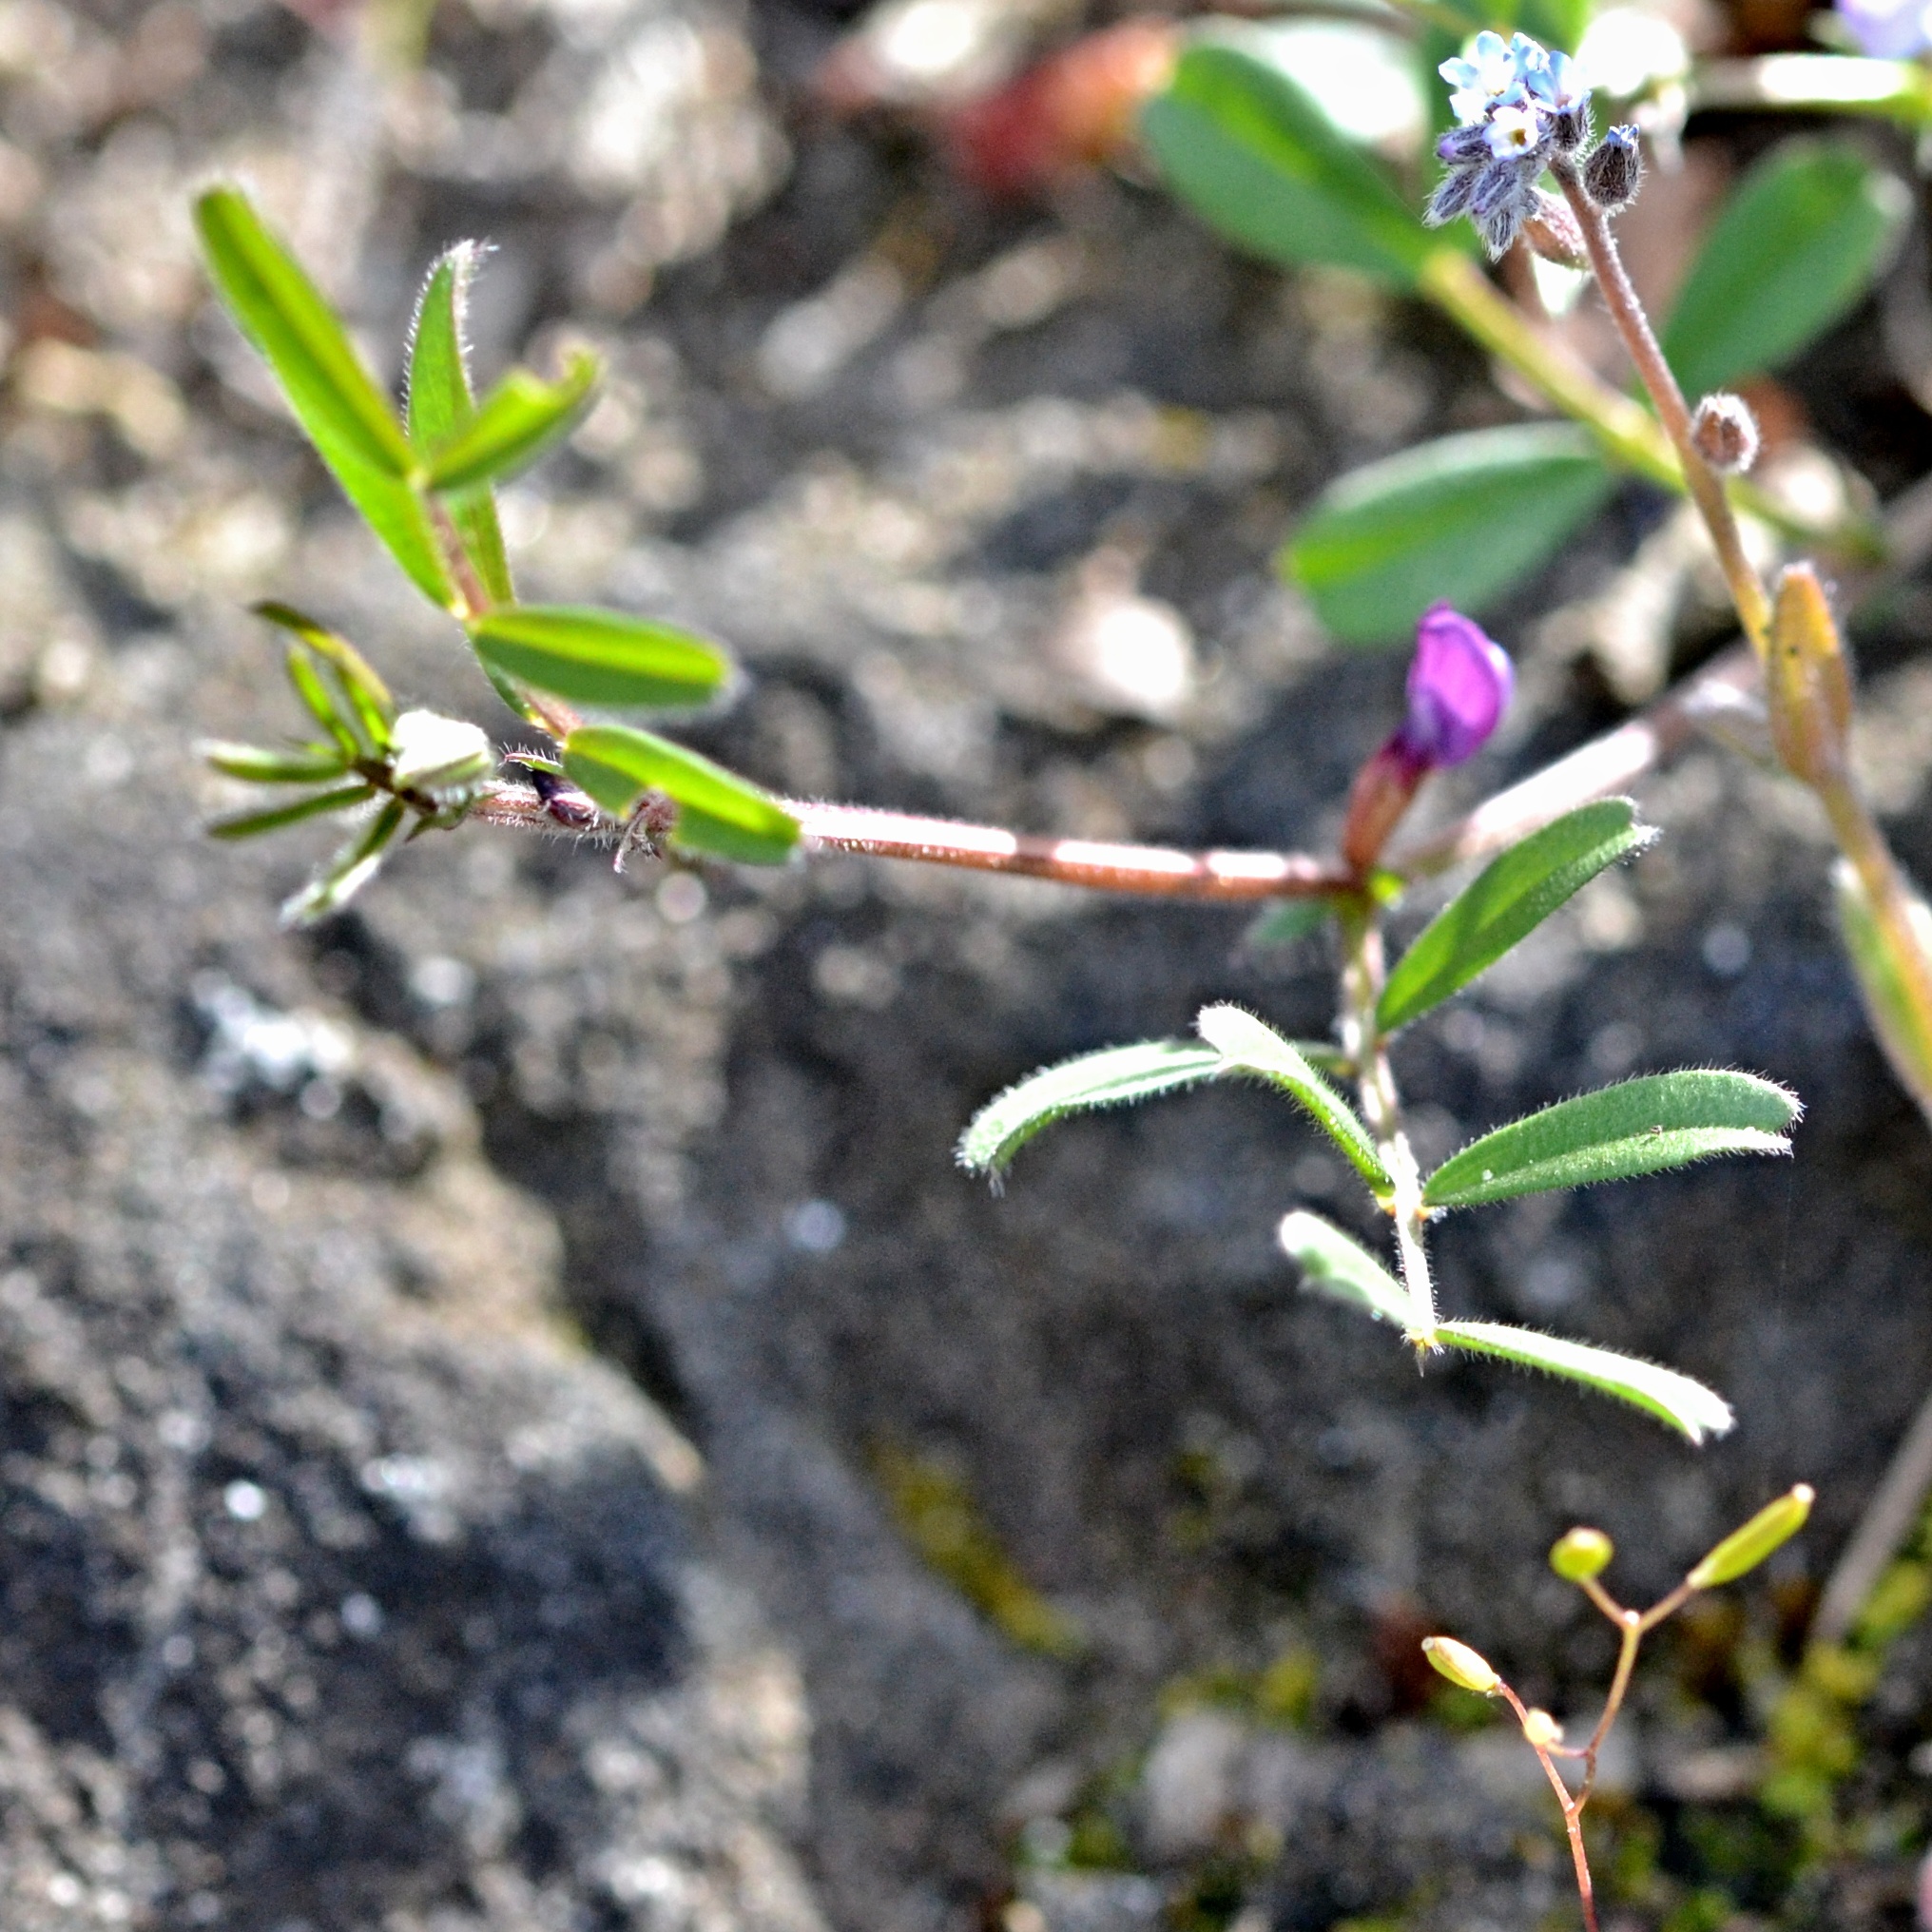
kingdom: Plantae
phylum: Tracheophyta
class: Magnoliopsida
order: Fabales
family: Fabaceae
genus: Vicia
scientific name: Vicia lathyroides
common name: Spring vetch
